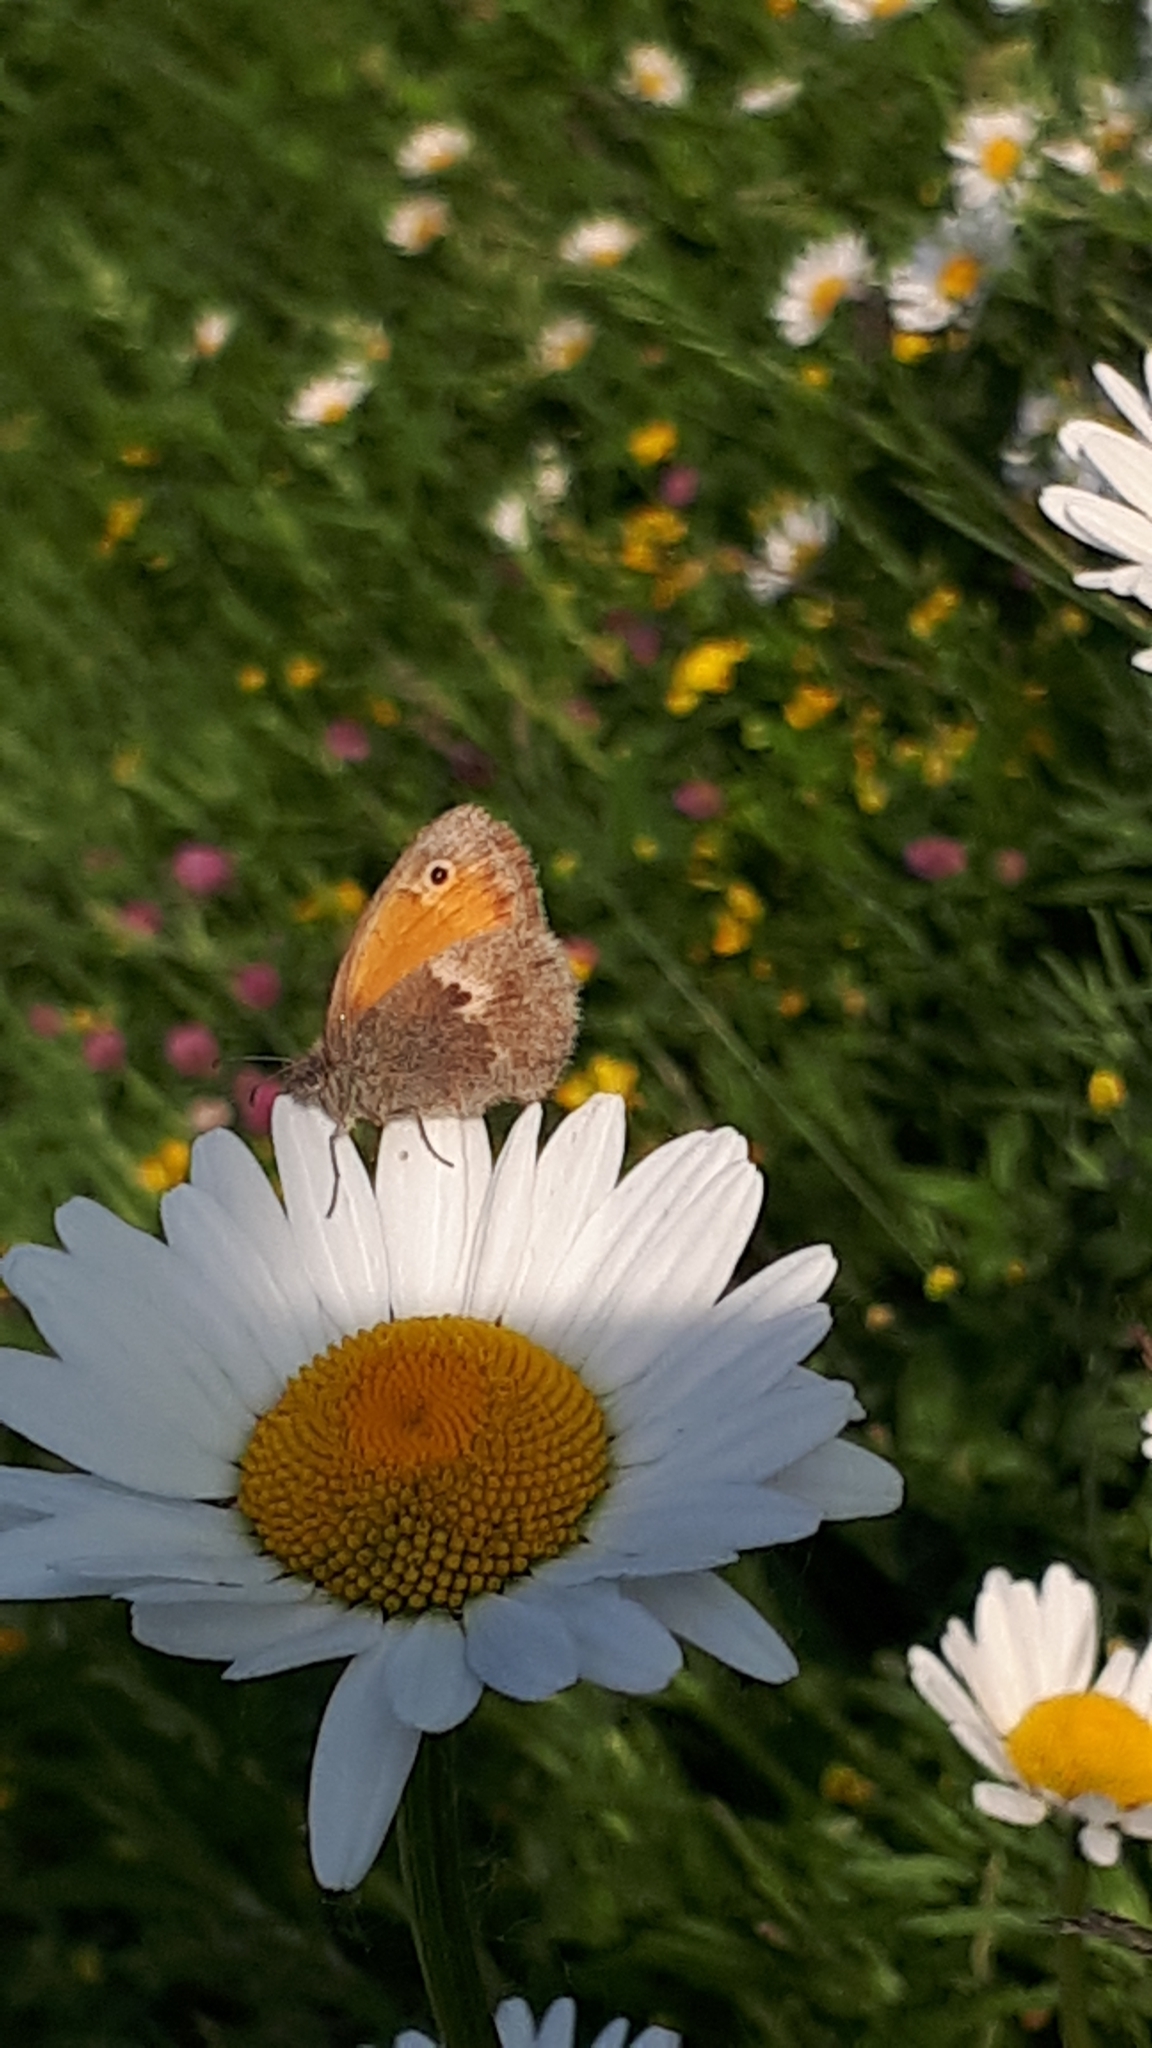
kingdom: Animalia
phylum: Arthropoda
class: Insecta
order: Lepidoptera
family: Nymphalidae
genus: Coenonympha
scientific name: Coenonympha pamphilus
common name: Small heath
